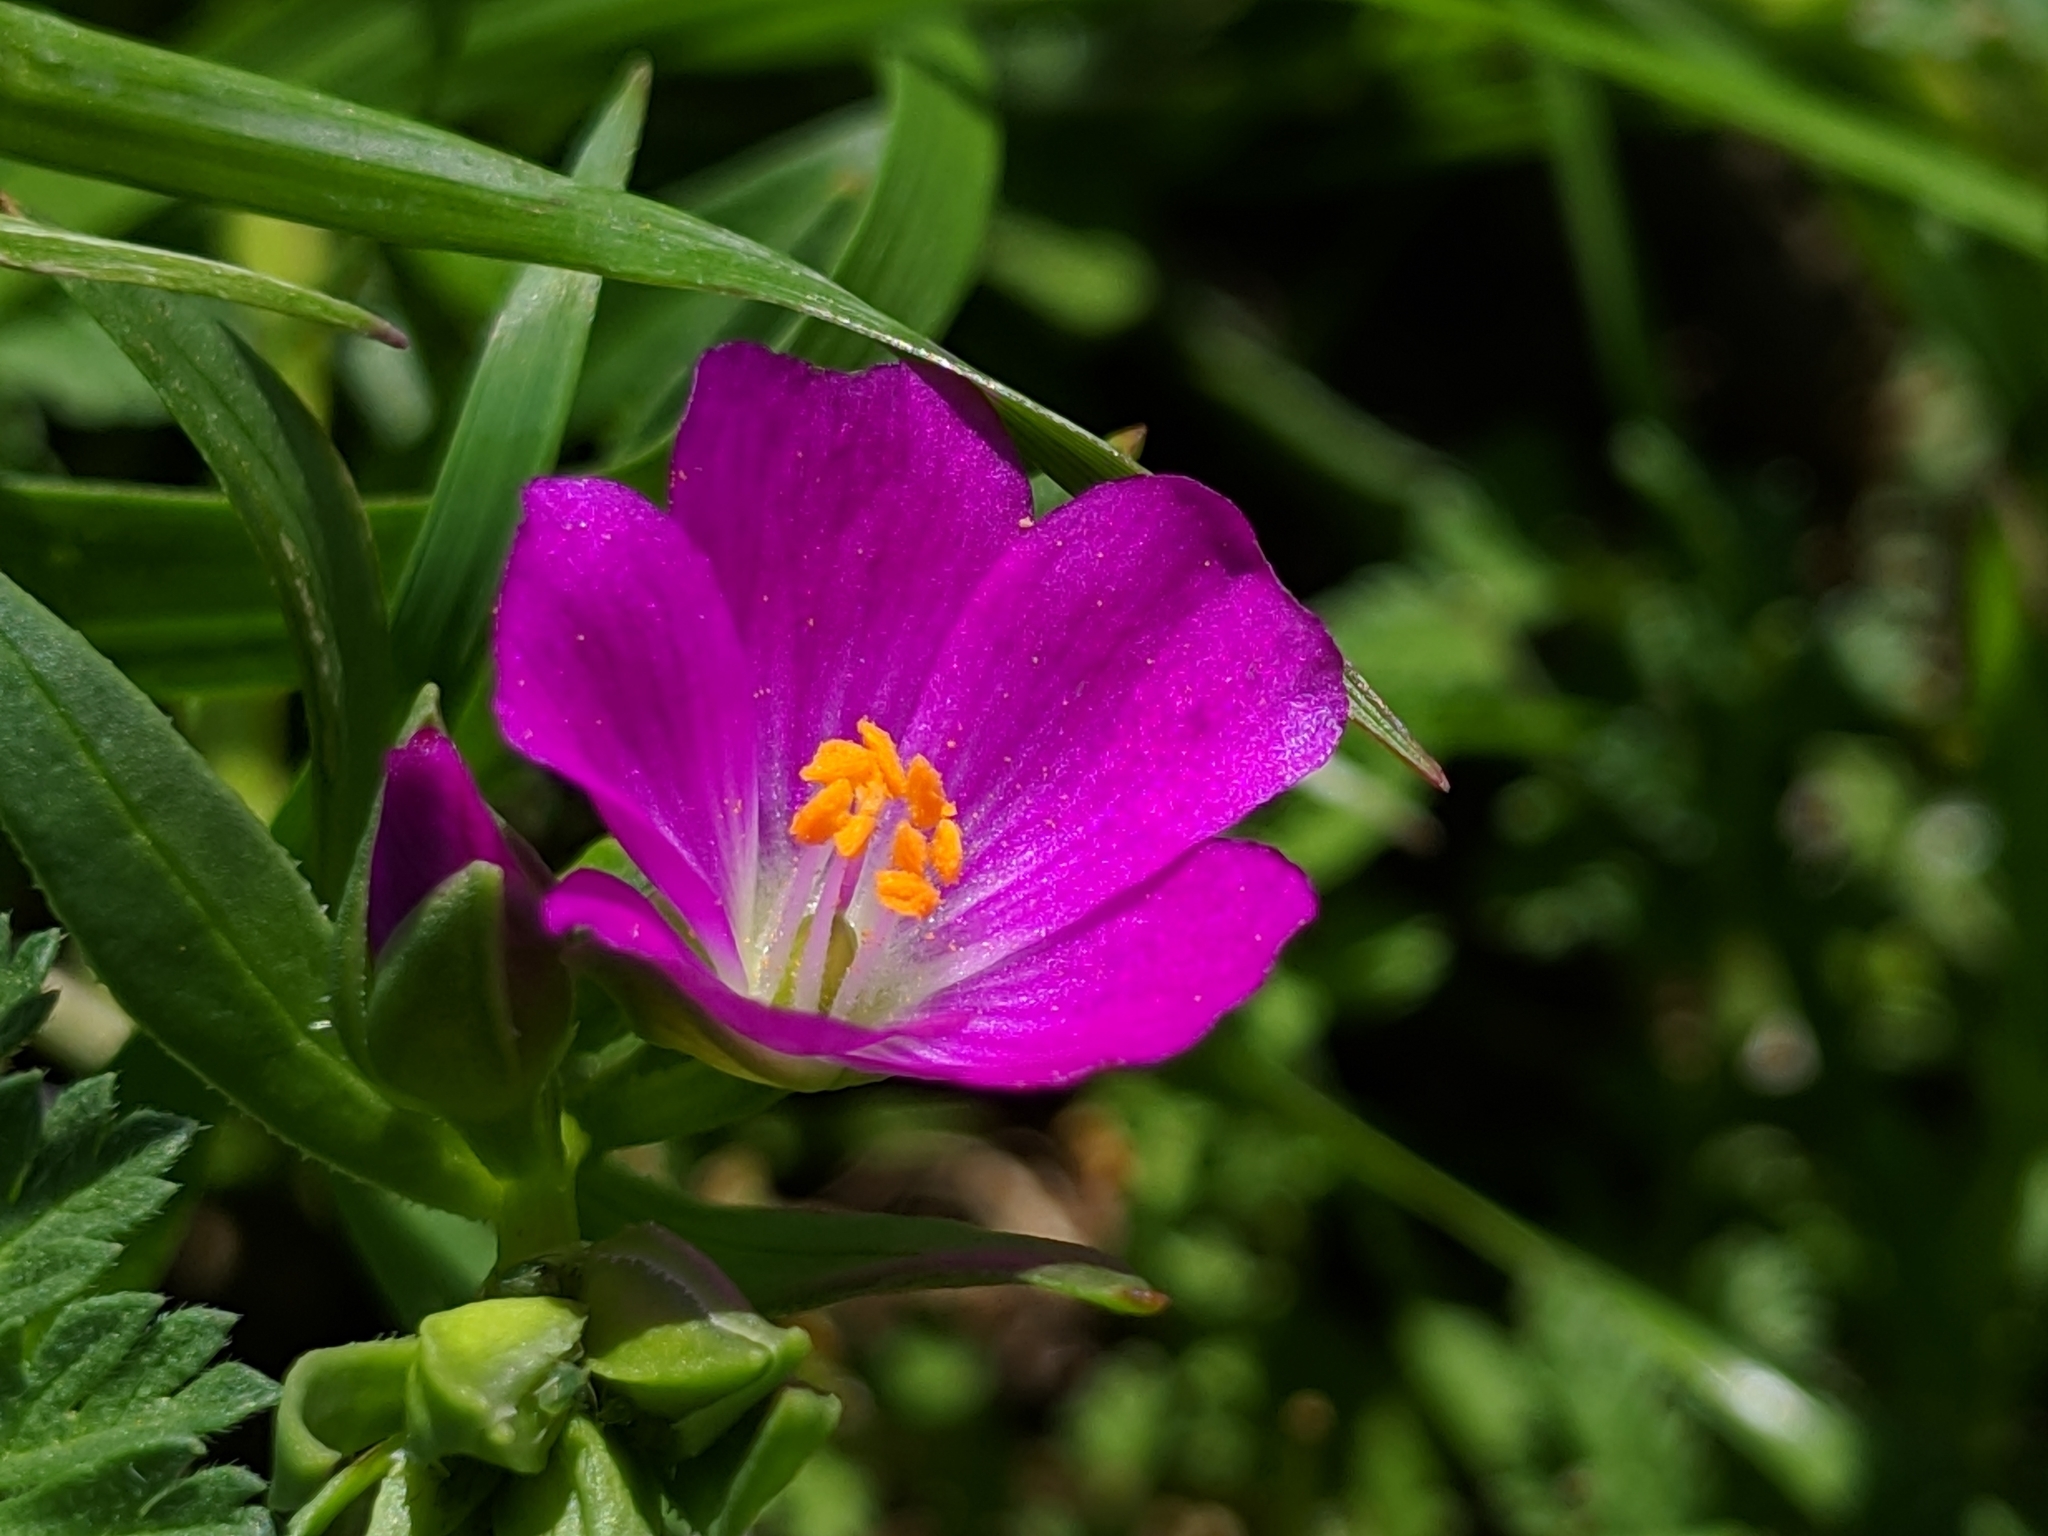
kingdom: Plantae
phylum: Tracheophyta
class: Magnoliopsida
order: Caryophyllales
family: Montiaceae
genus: Calandrinia
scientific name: Calandrinia menziesii
